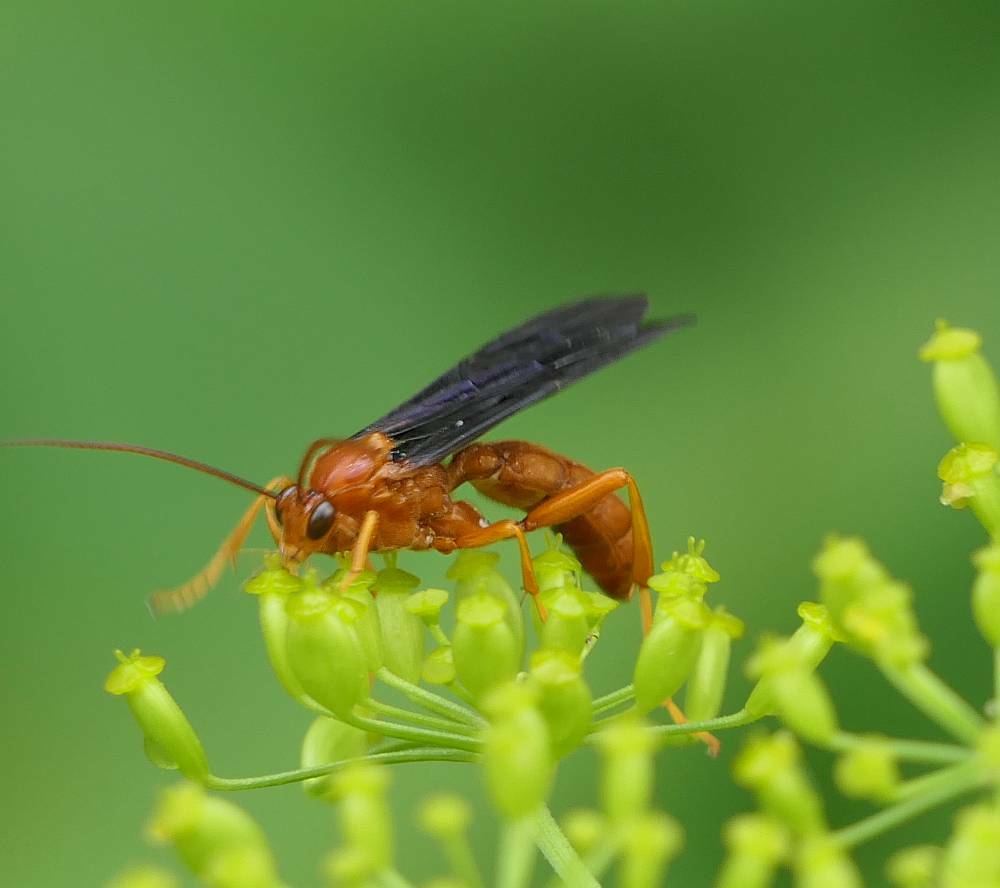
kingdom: Animalia
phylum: Arthropoda
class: Insecta
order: Hymenoptera
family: Ichneumonidae
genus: Trogus
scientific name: Trogus pennator
